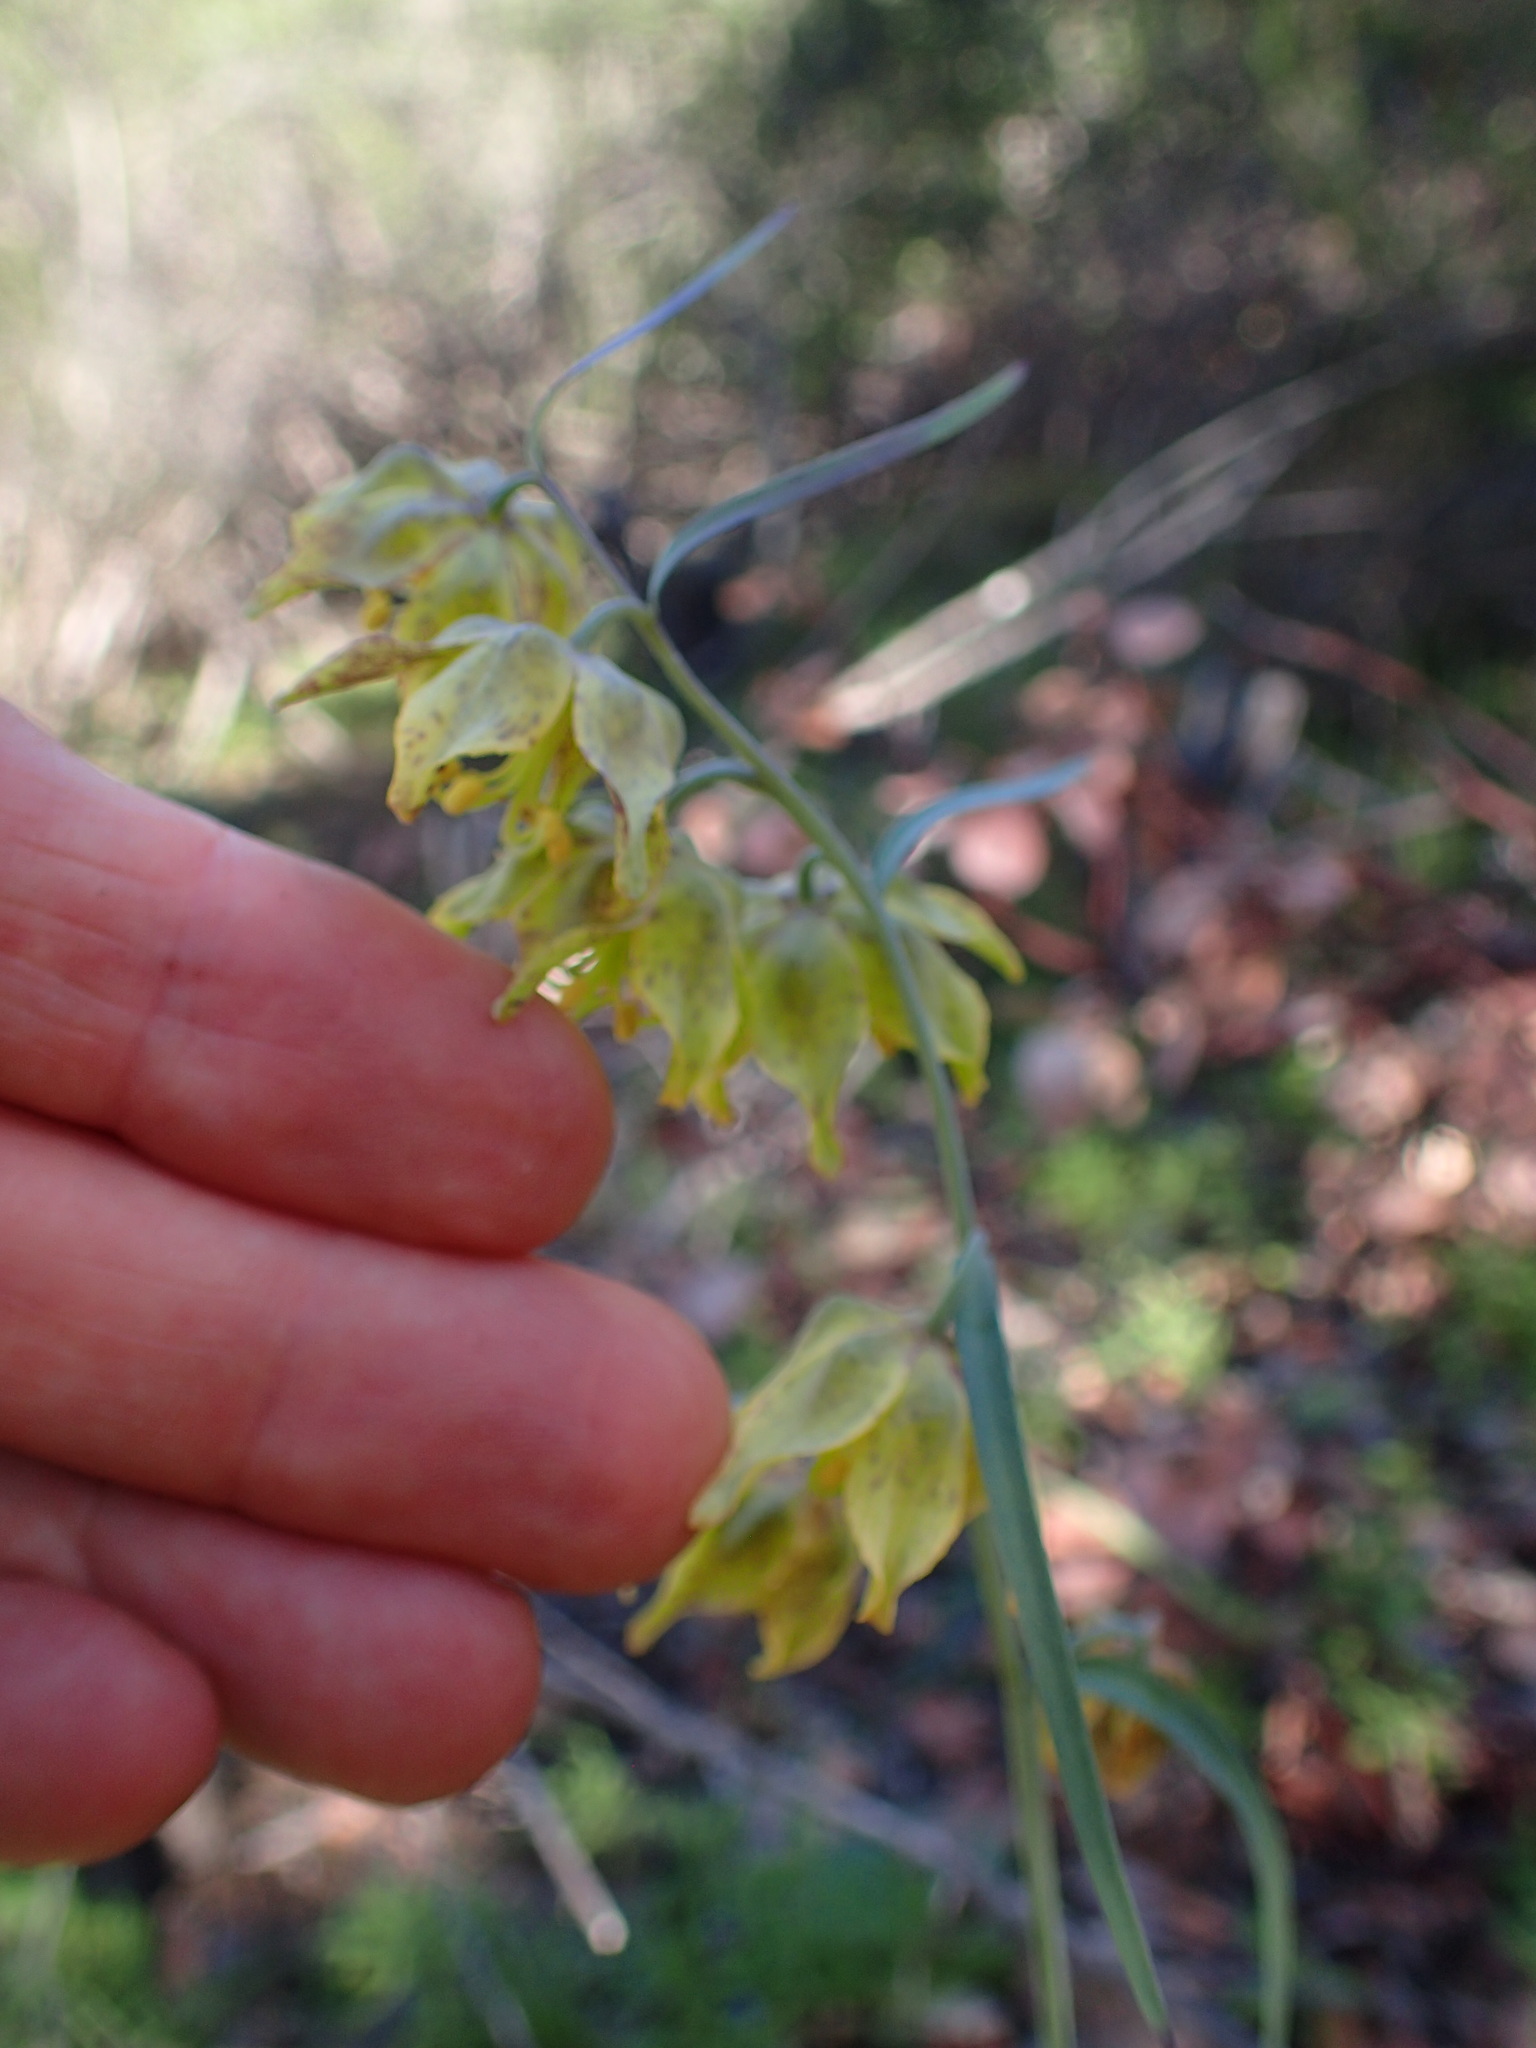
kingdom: Plantae
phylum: Tracheophyta
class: Liliopsida
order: Liliales
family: Liliaceae
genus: Fritillaria
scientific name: Fritillaria ojaiensis
